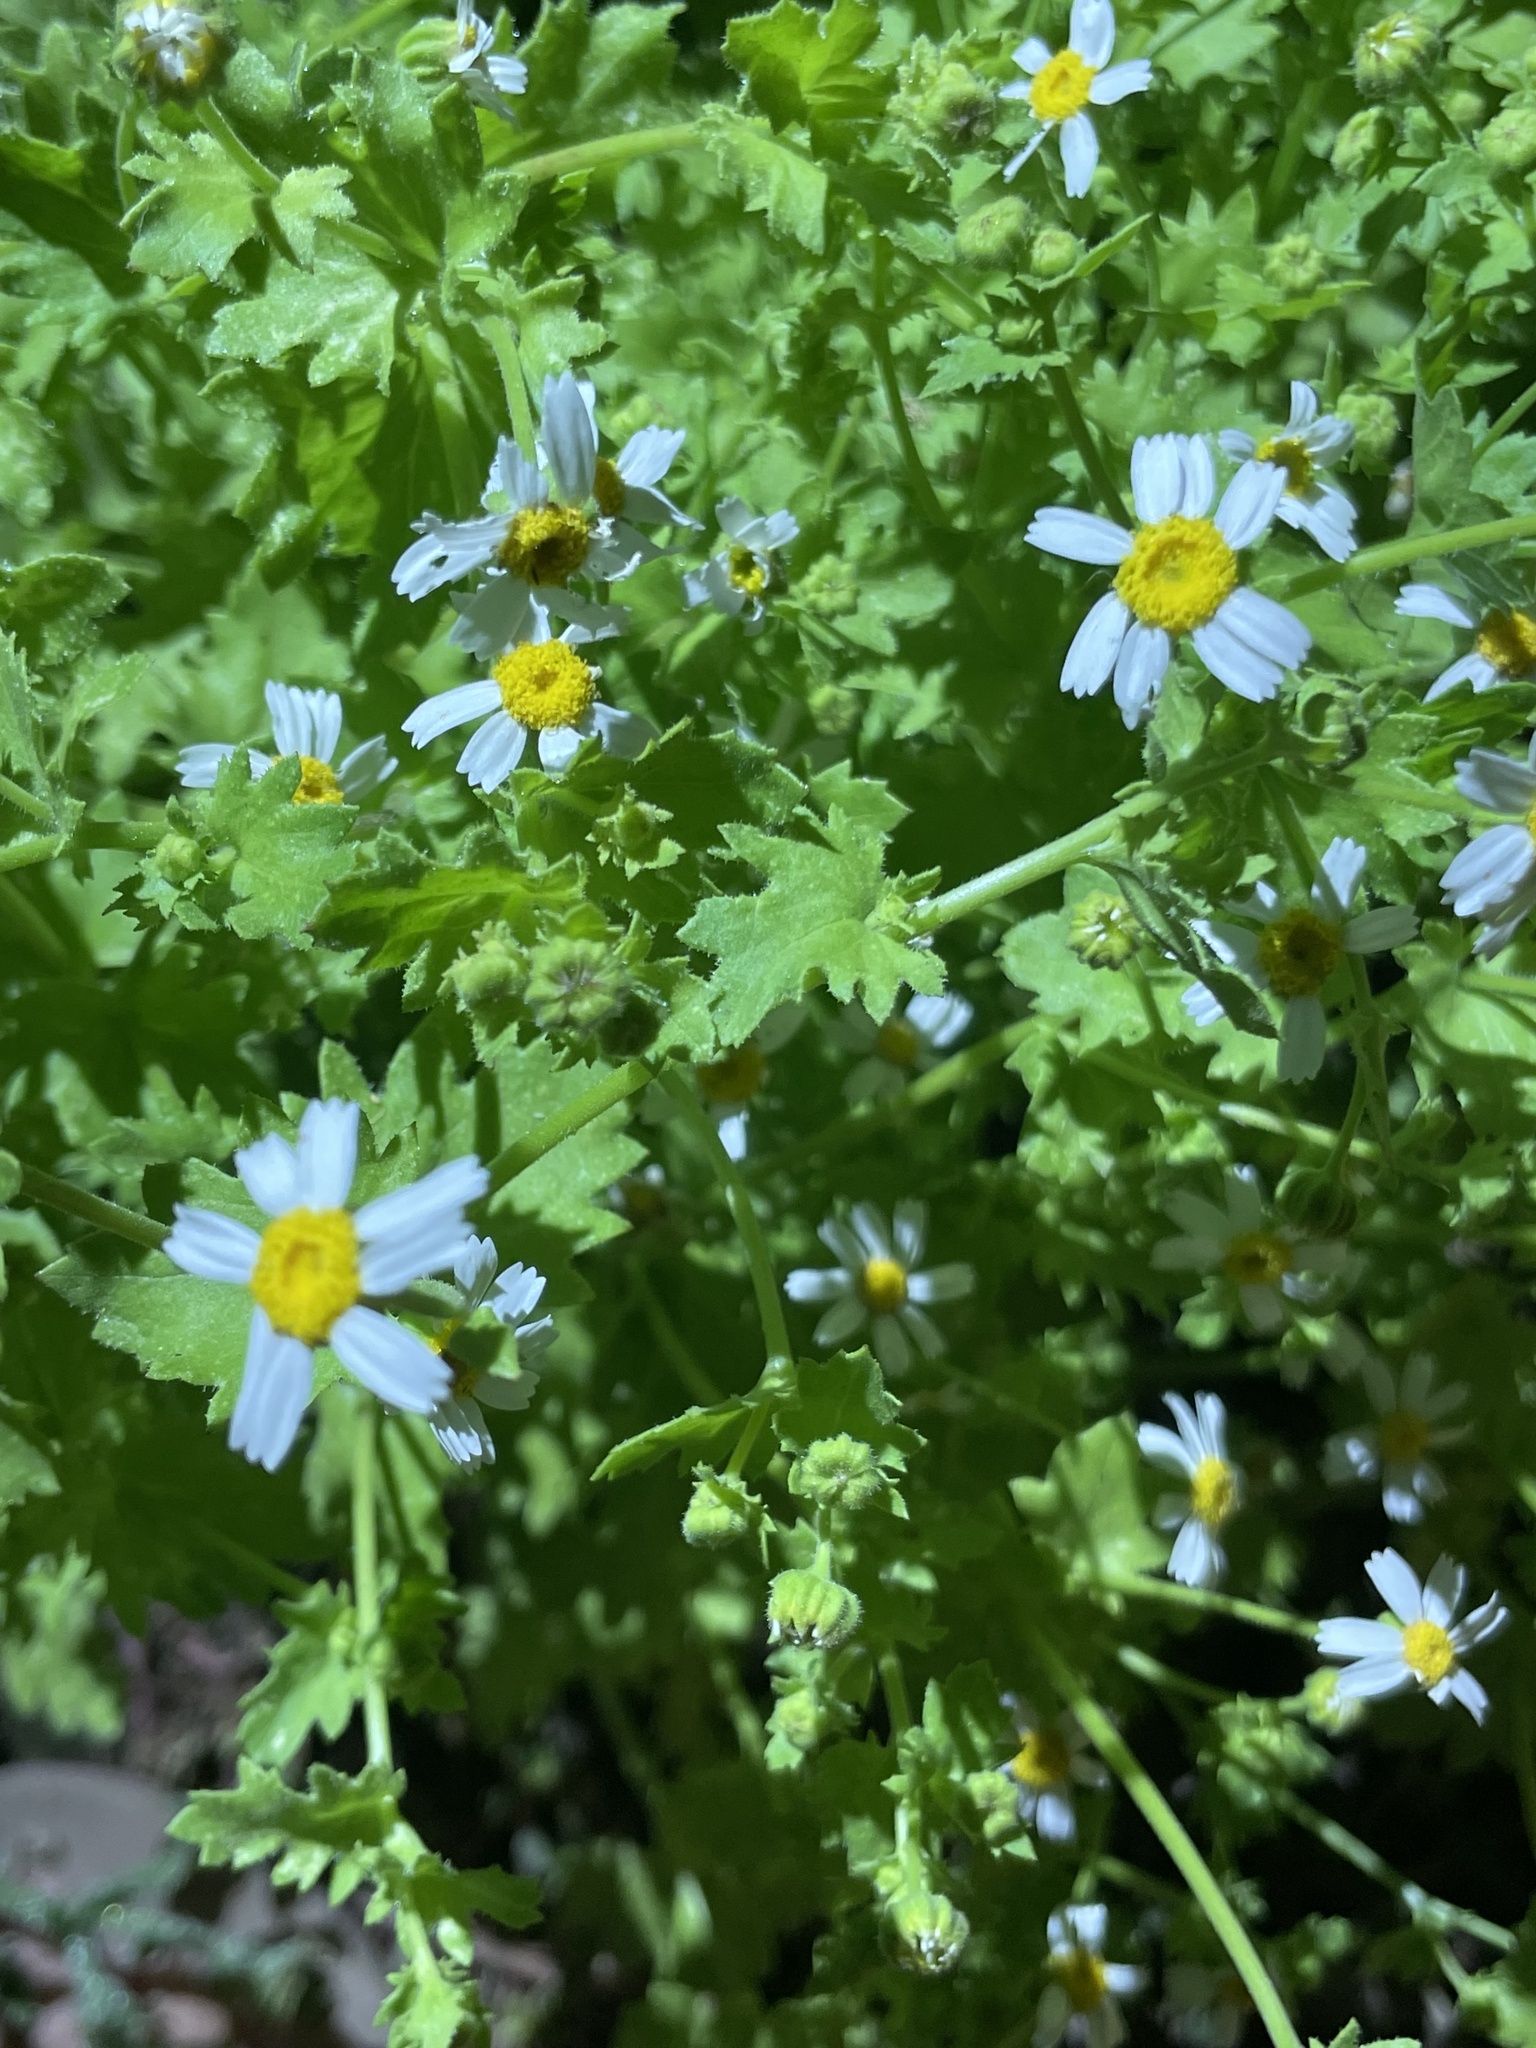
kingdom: Plantae
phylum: Tracheophyta
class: Magnoliopsida
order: Asterales
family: Asteraceae
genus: Perityle
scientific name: Perityle brandegeeana
